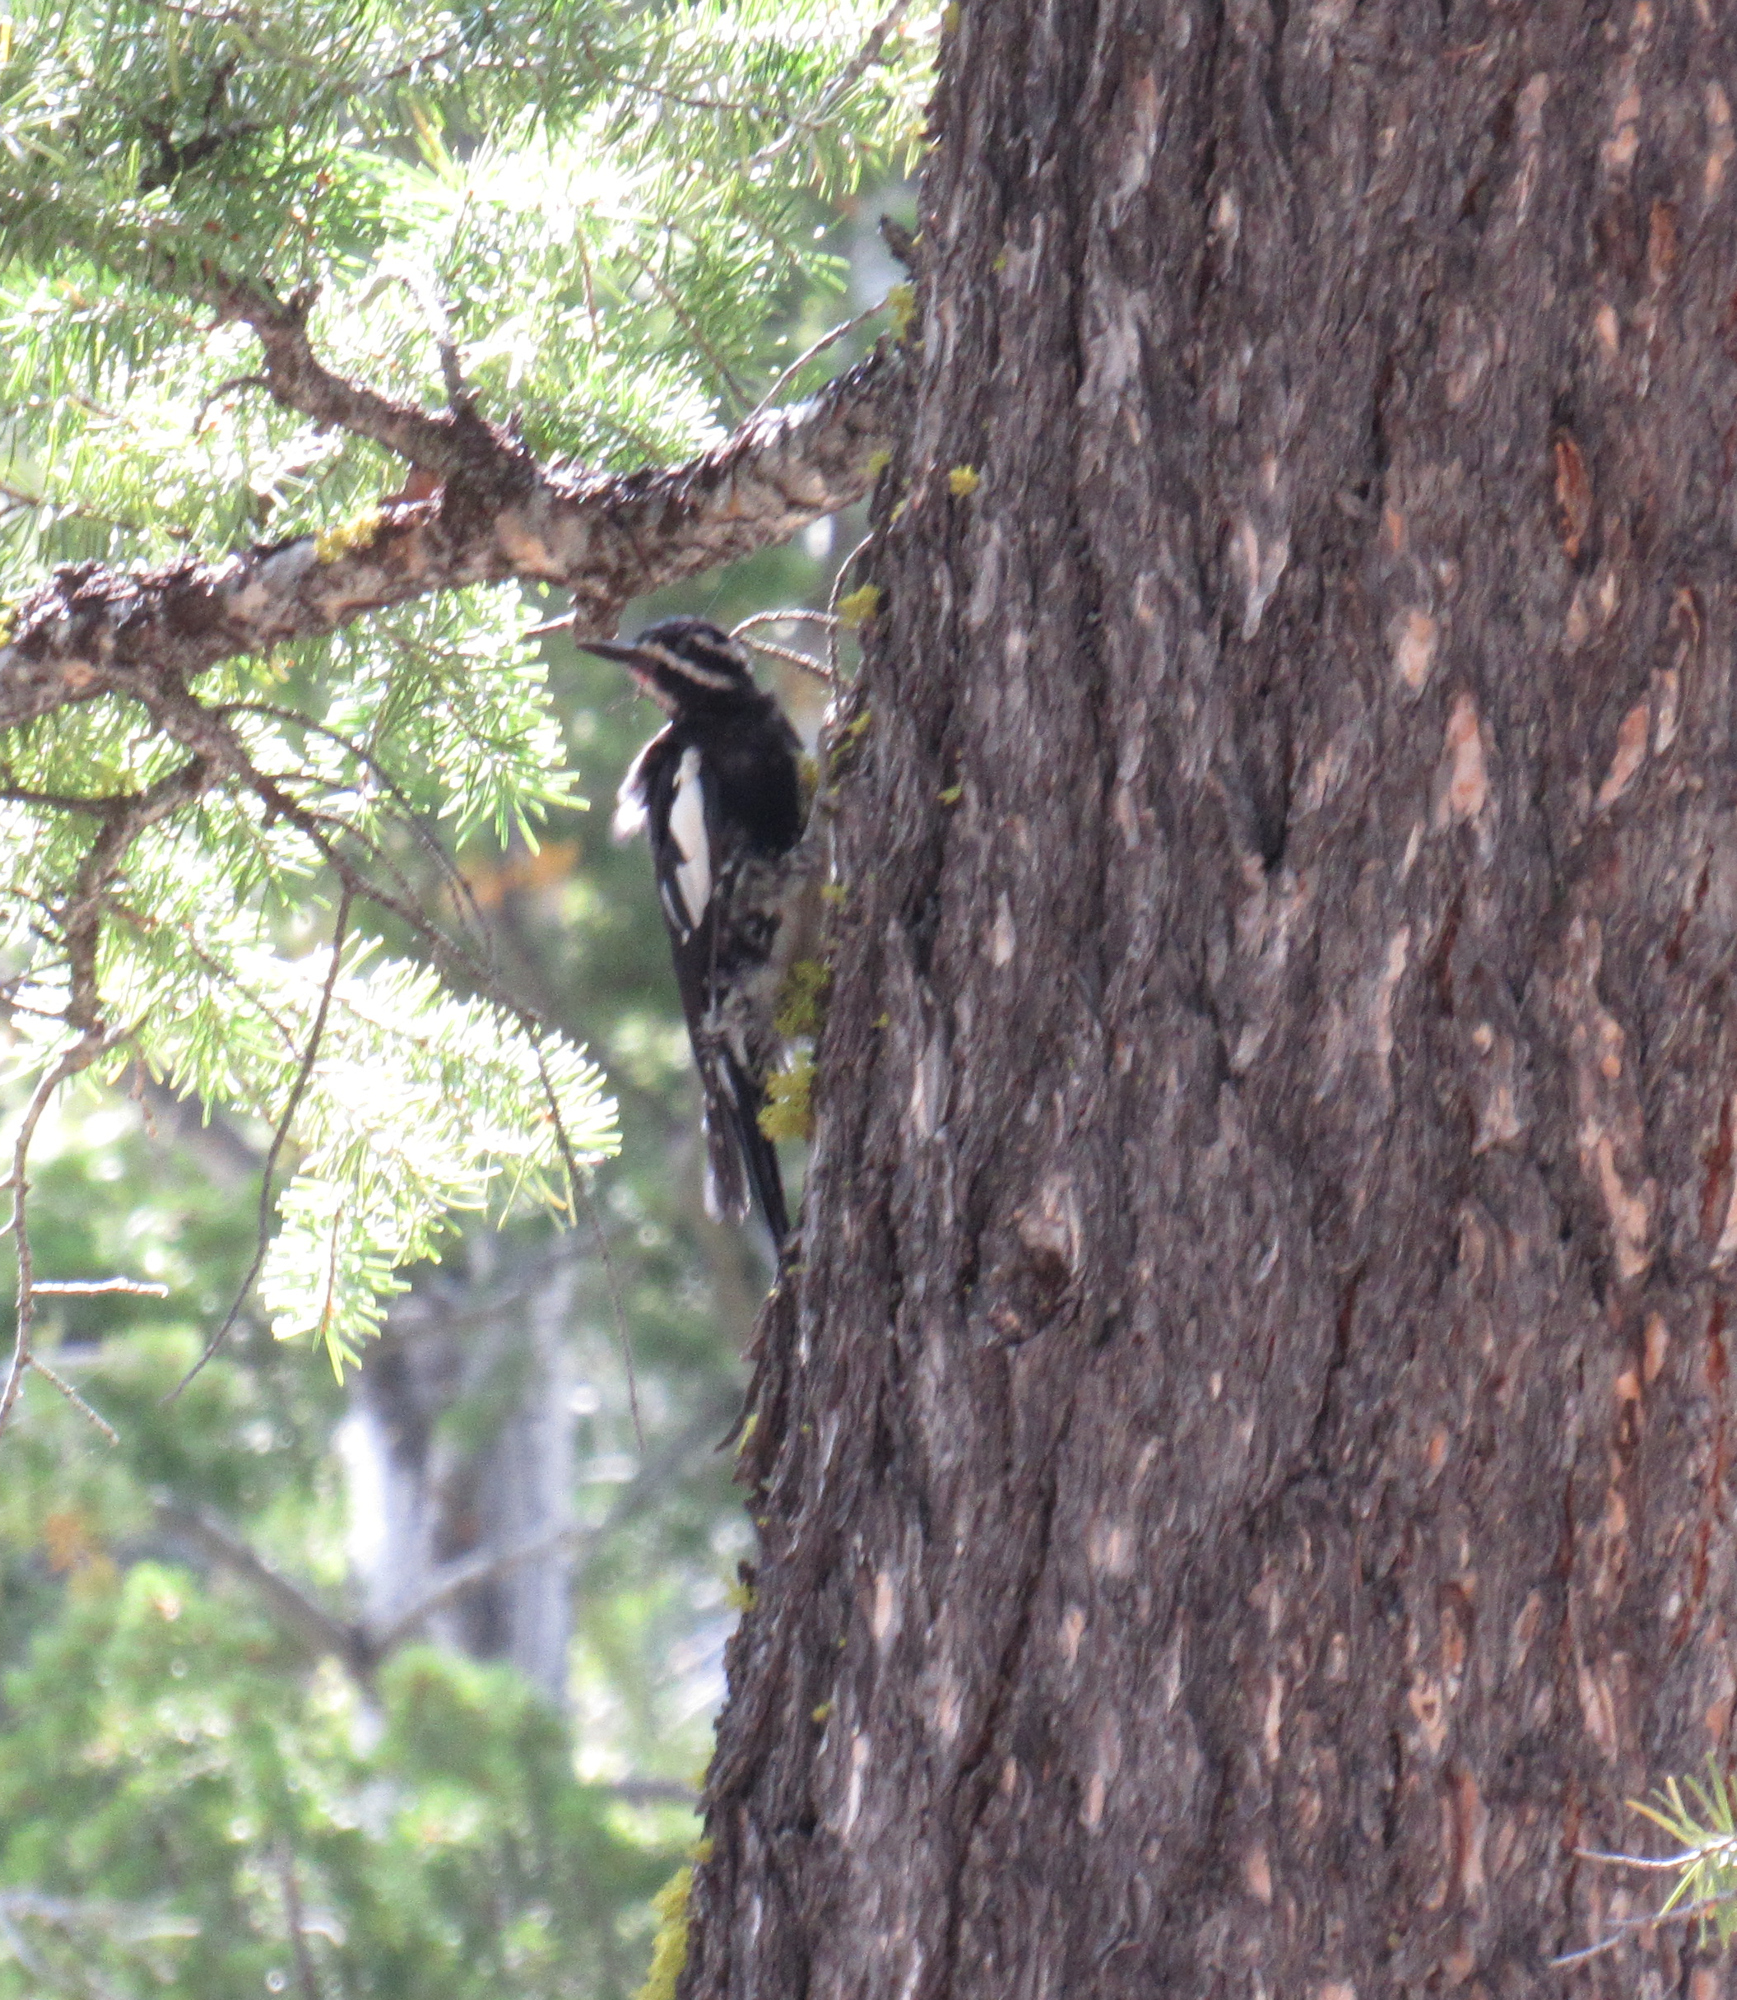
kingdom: Animalia
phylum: Chordata
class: Aves
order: Piciformes
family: Picidae
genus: Sphyrapicus
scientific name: Sphyrapicus thyroideus
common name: Williamson's sapsucker
